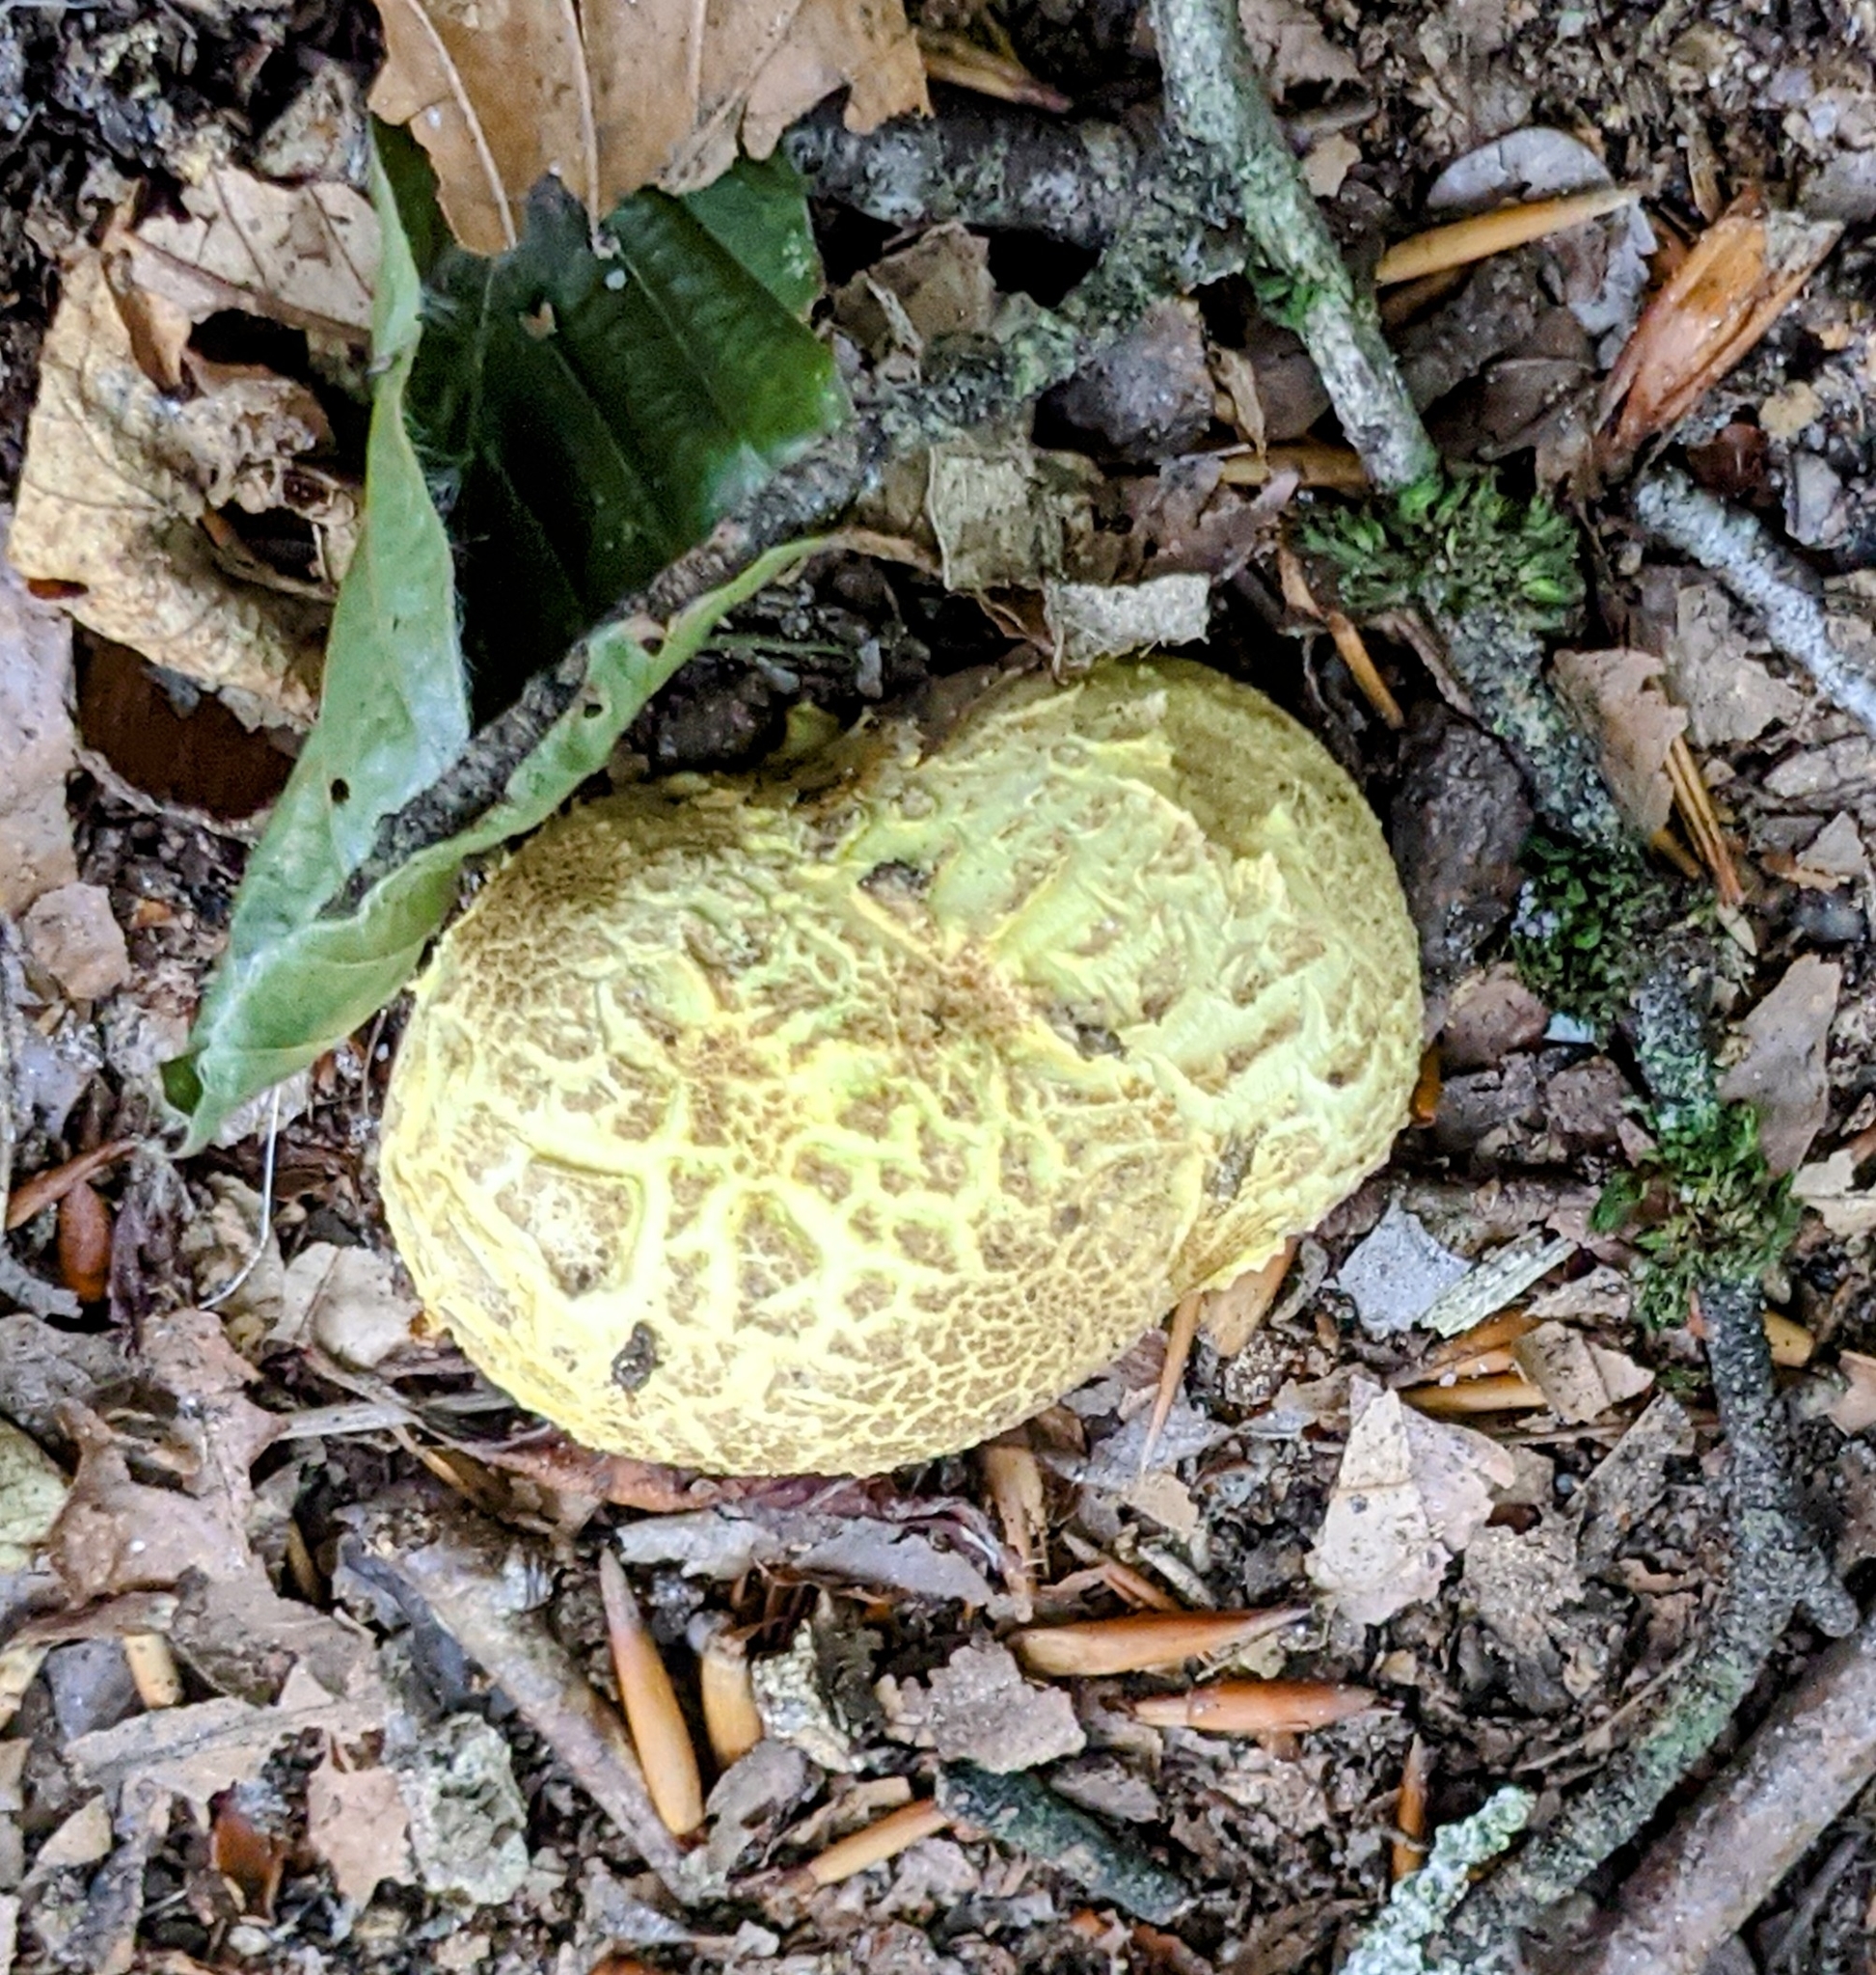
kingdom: Fungi
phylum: Basidiomycota
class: Agaricomycetes
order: Boletales
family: Sclerodermataceae
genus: Scleroderma
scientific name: Scleroderma citrinum
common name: Common earthball
